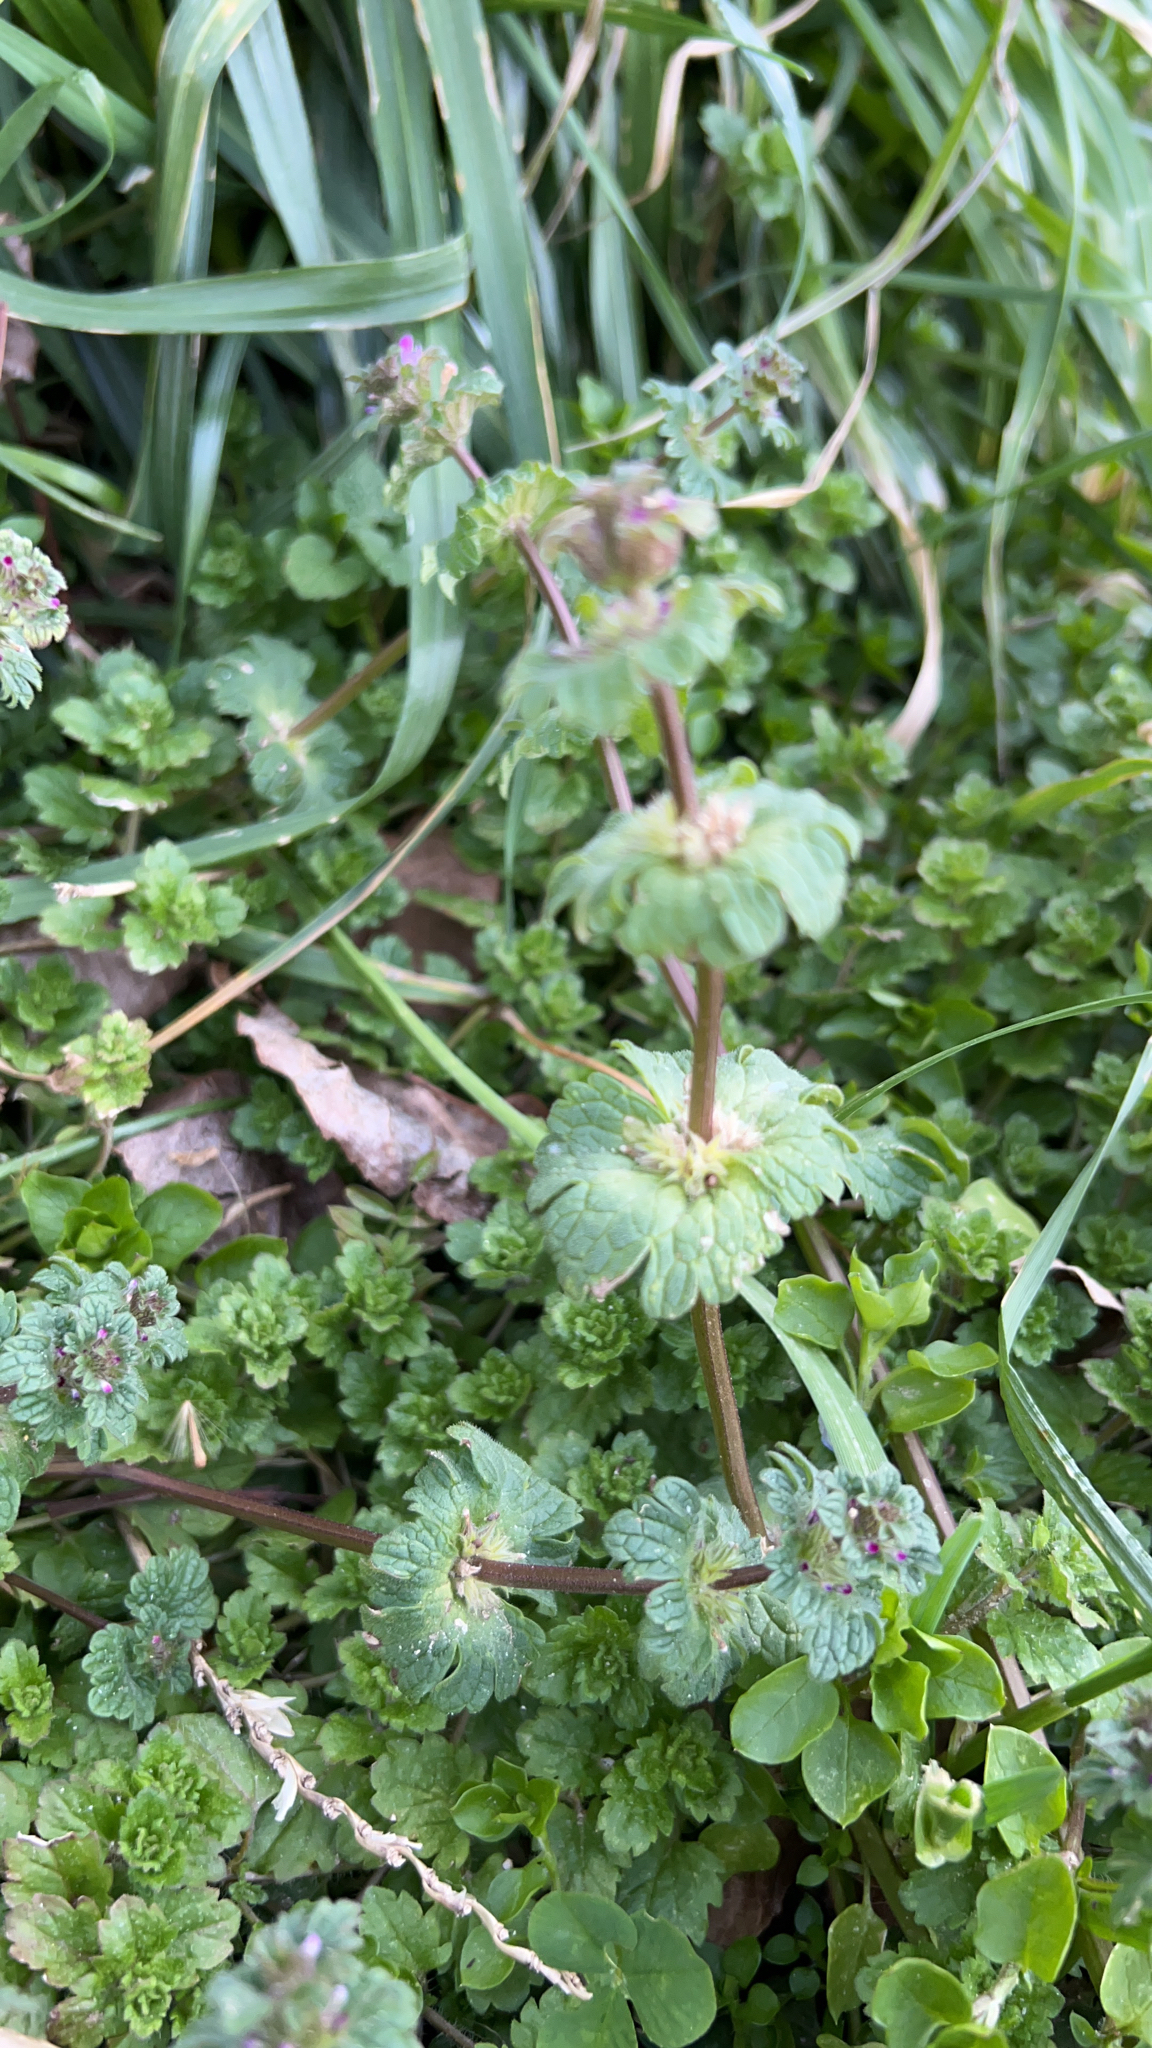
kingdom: Plantae
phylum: Tracheophyta
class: Magnoliopsida
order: Lamiales
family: Lamiaceae
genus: Lamium
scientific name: Lamium amplexicaule
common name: Henbit dead-nettle
